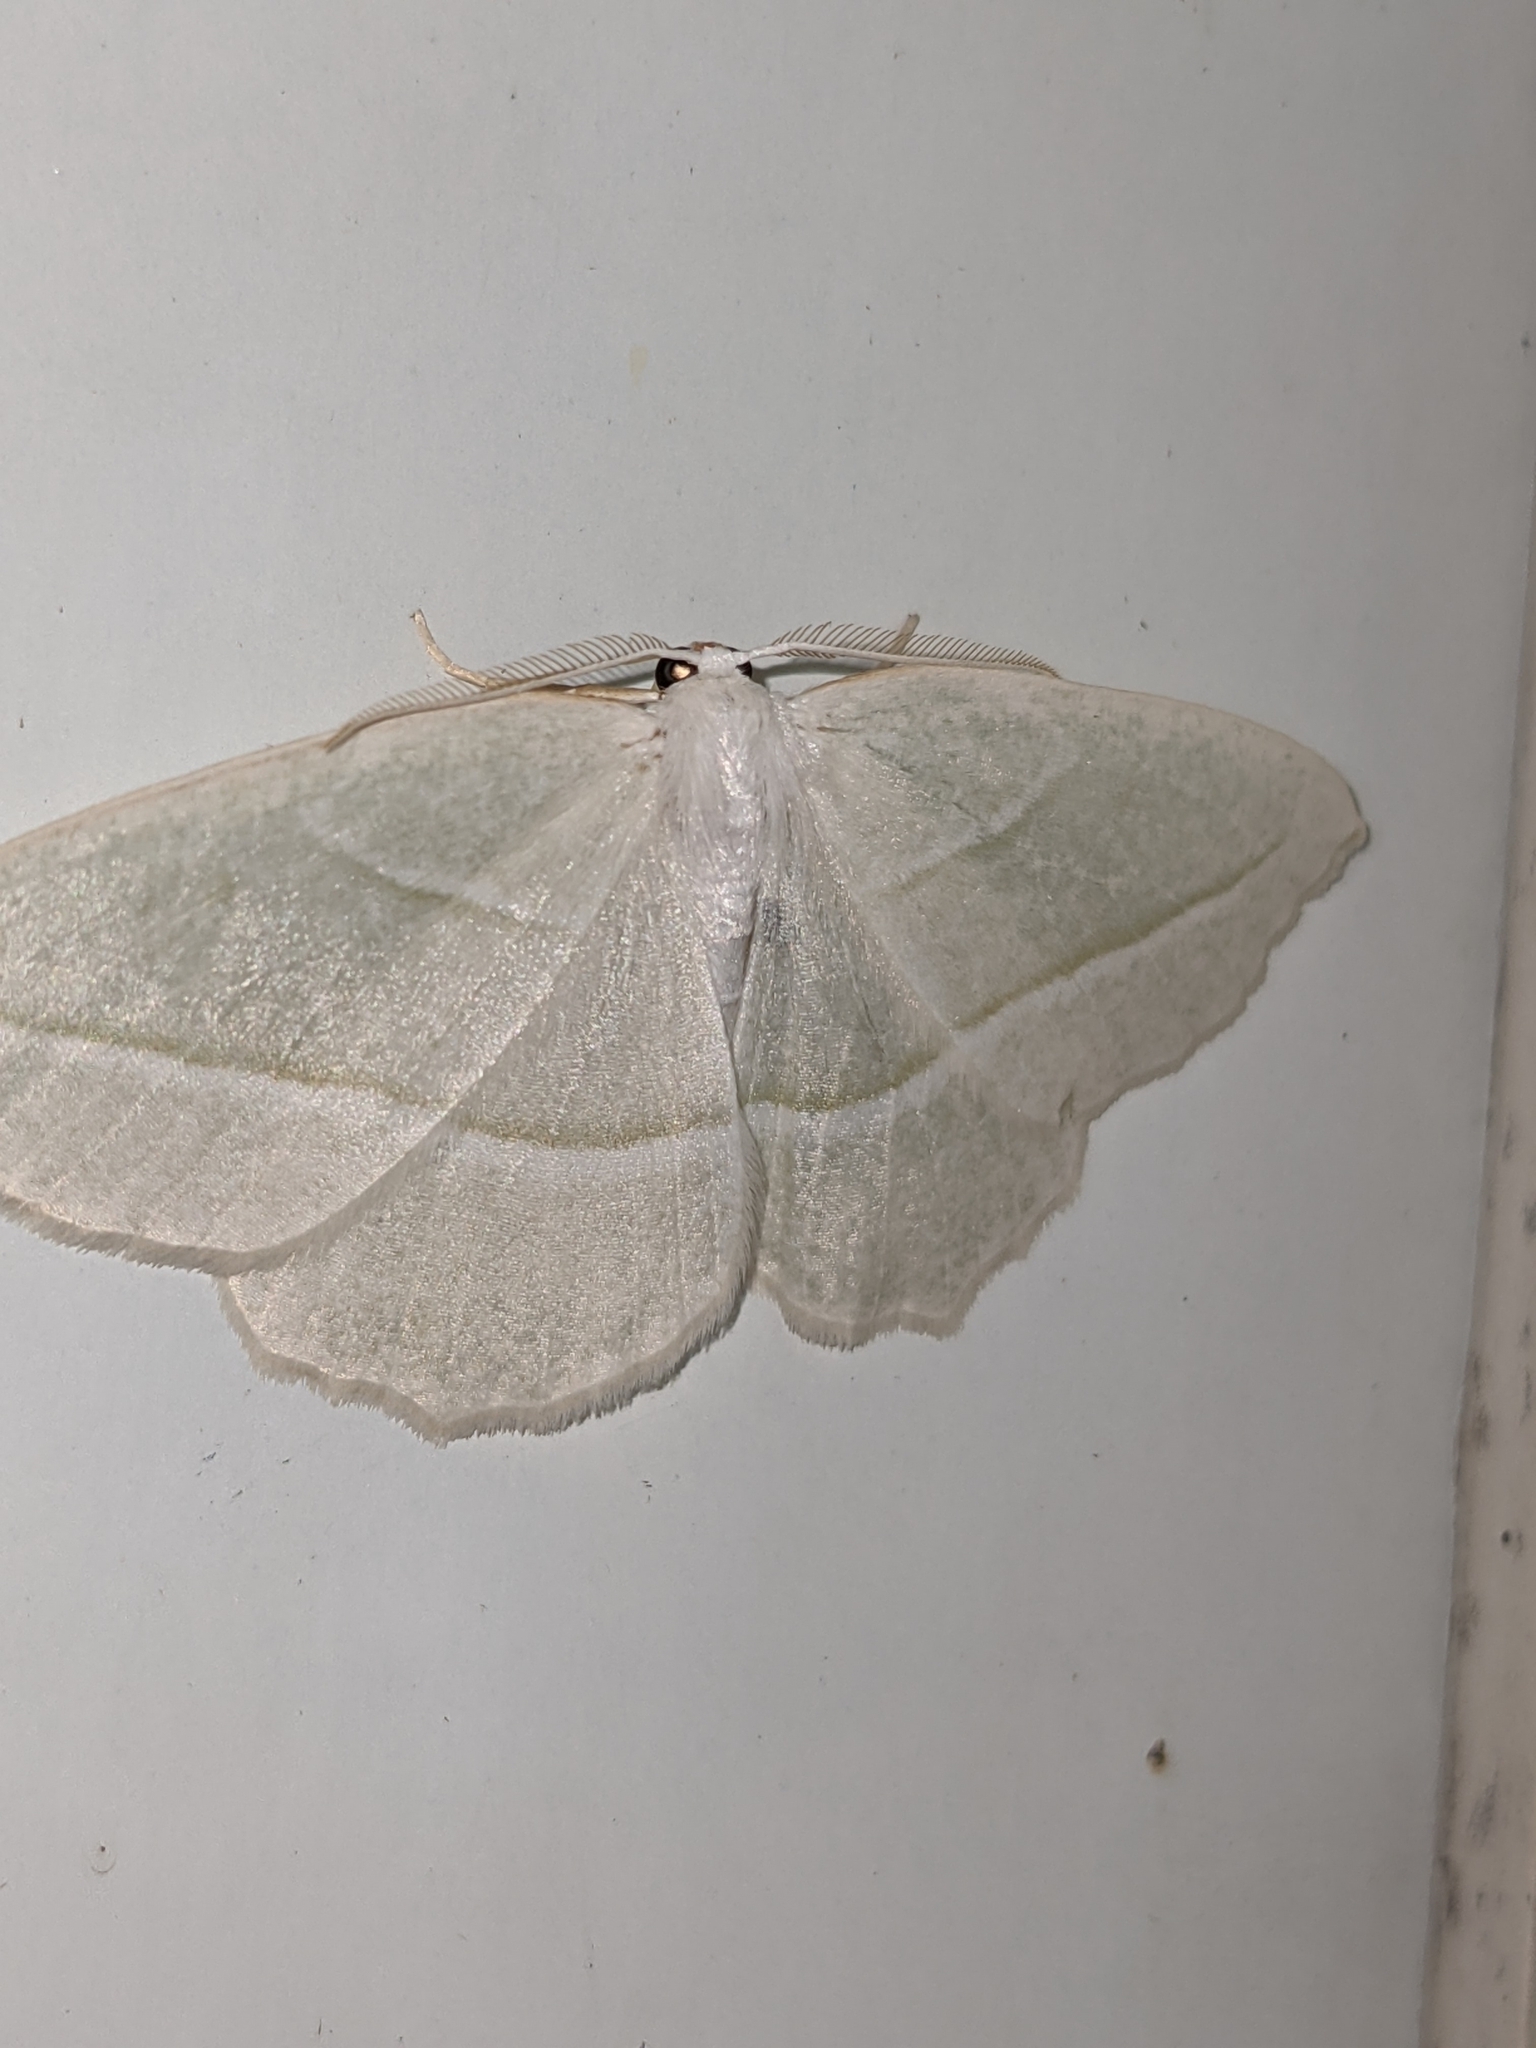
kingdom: Animalia
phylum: Arthropoda
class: Insecta
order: Lepidoptera
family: Geometridae
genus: Campaea
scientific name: Campaea perlata
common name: Fringed looper
